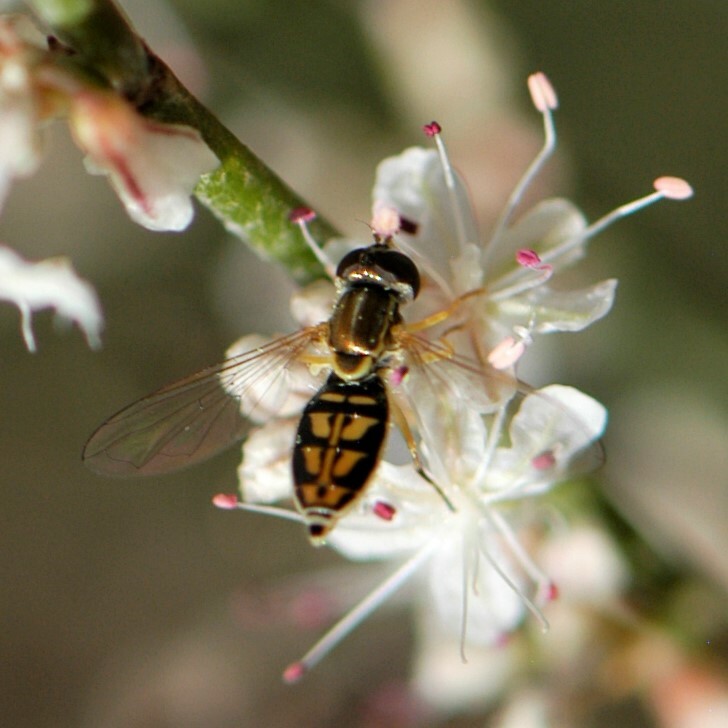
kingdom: Animalia
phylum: Arthropoda
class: Insecta
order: Diptera
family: Syrphidae
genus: Toxomerus
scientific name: Toxomerus marginatus
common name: Syrphid fly
